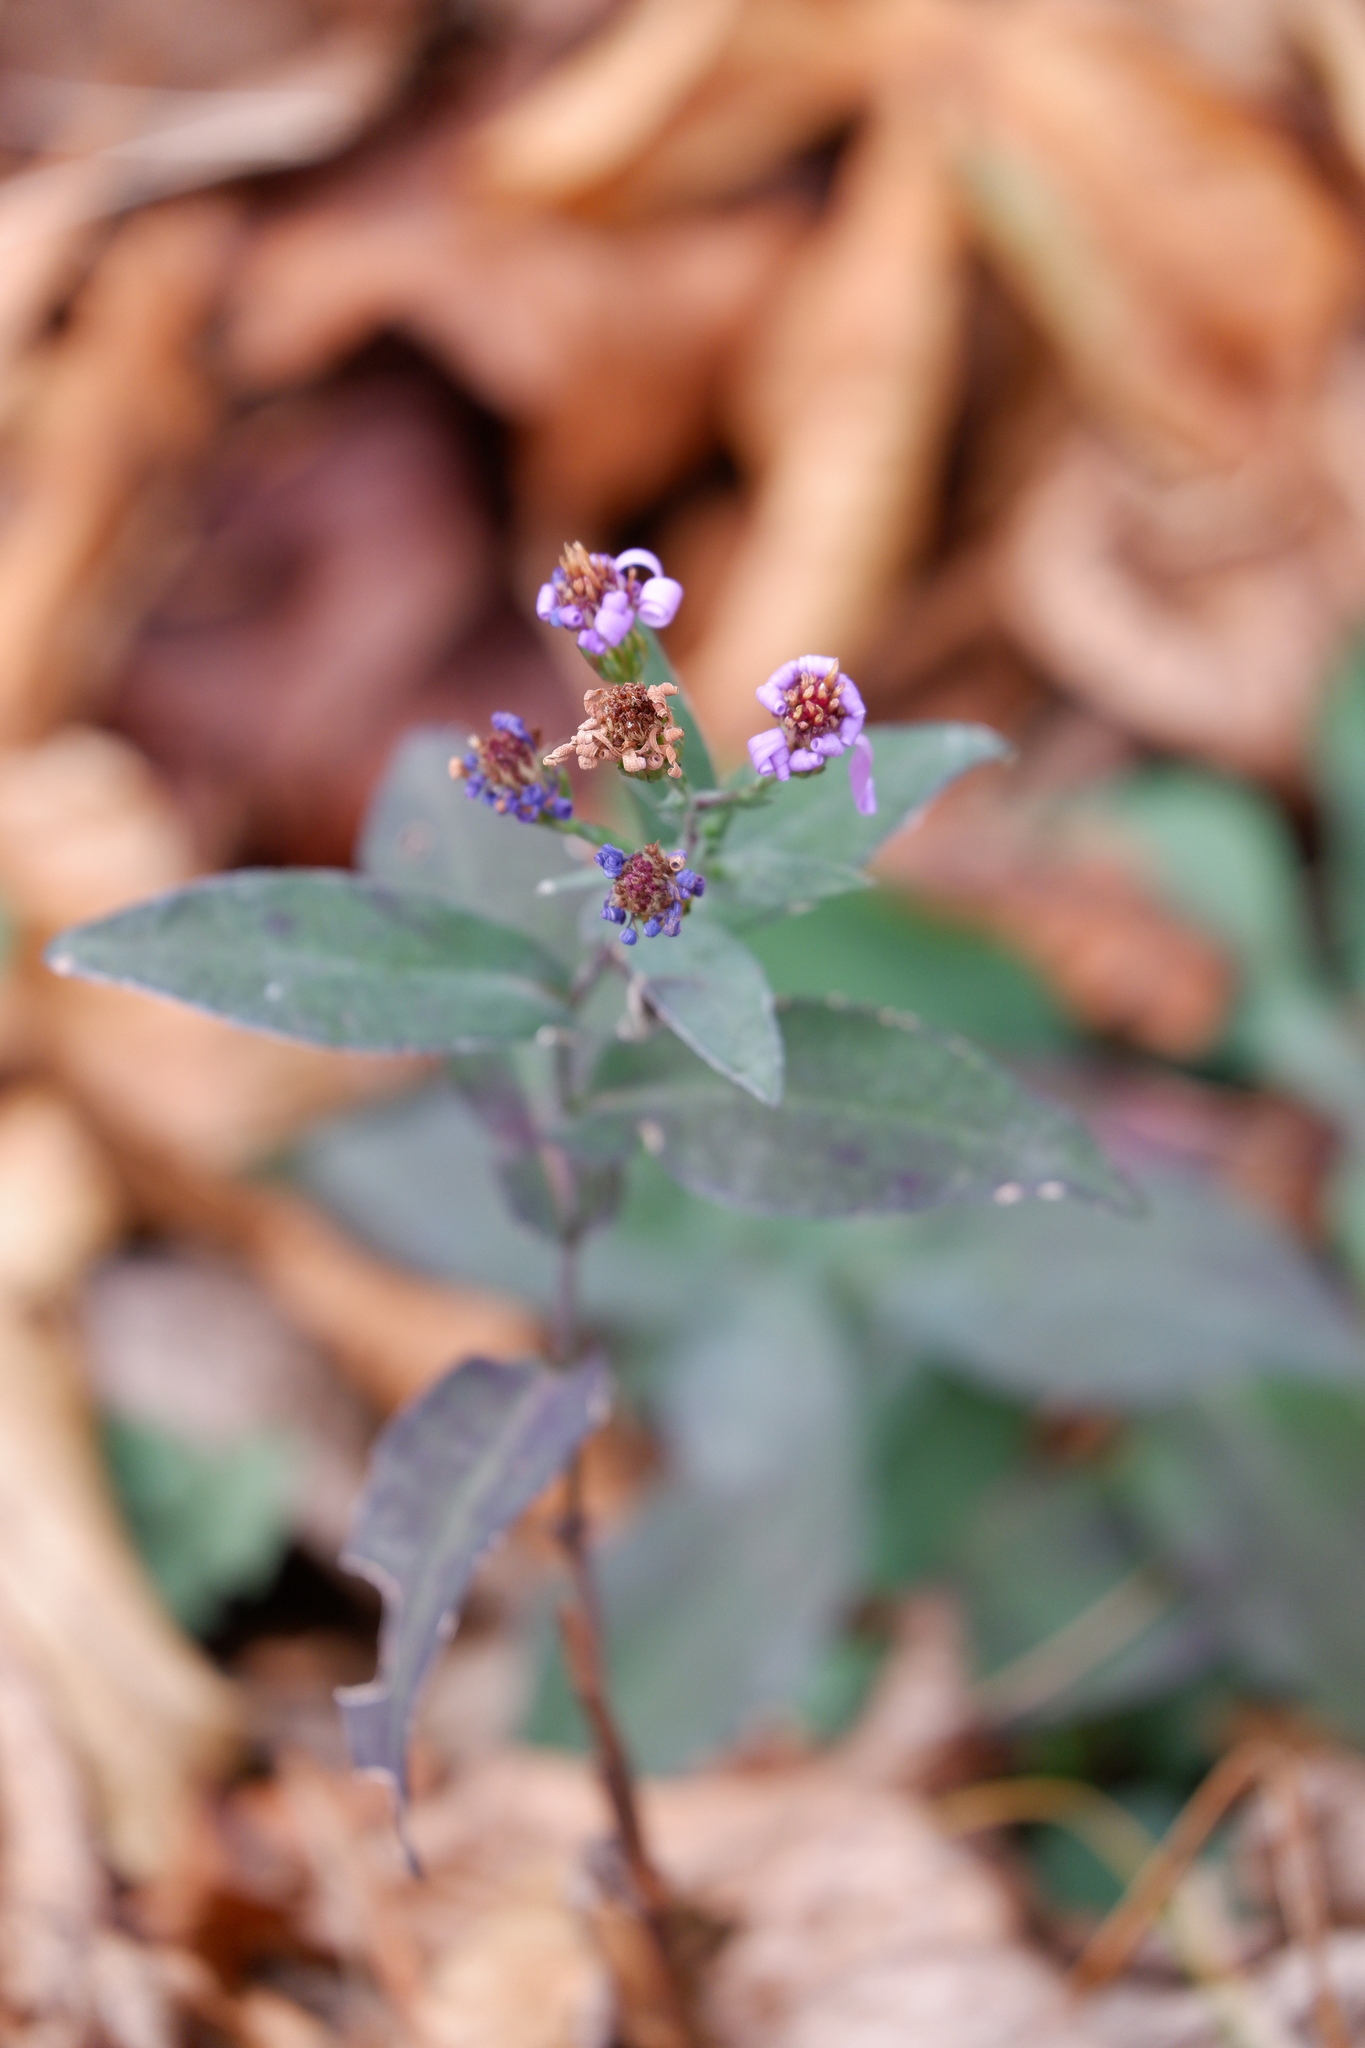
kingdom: Plantae
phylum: Tracheophyta
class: Magnoliopsida
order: Asterales
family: Asteraceae
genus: Symphyotrichum
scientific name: Symphyotrichum laeve
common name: Glaucous aster
